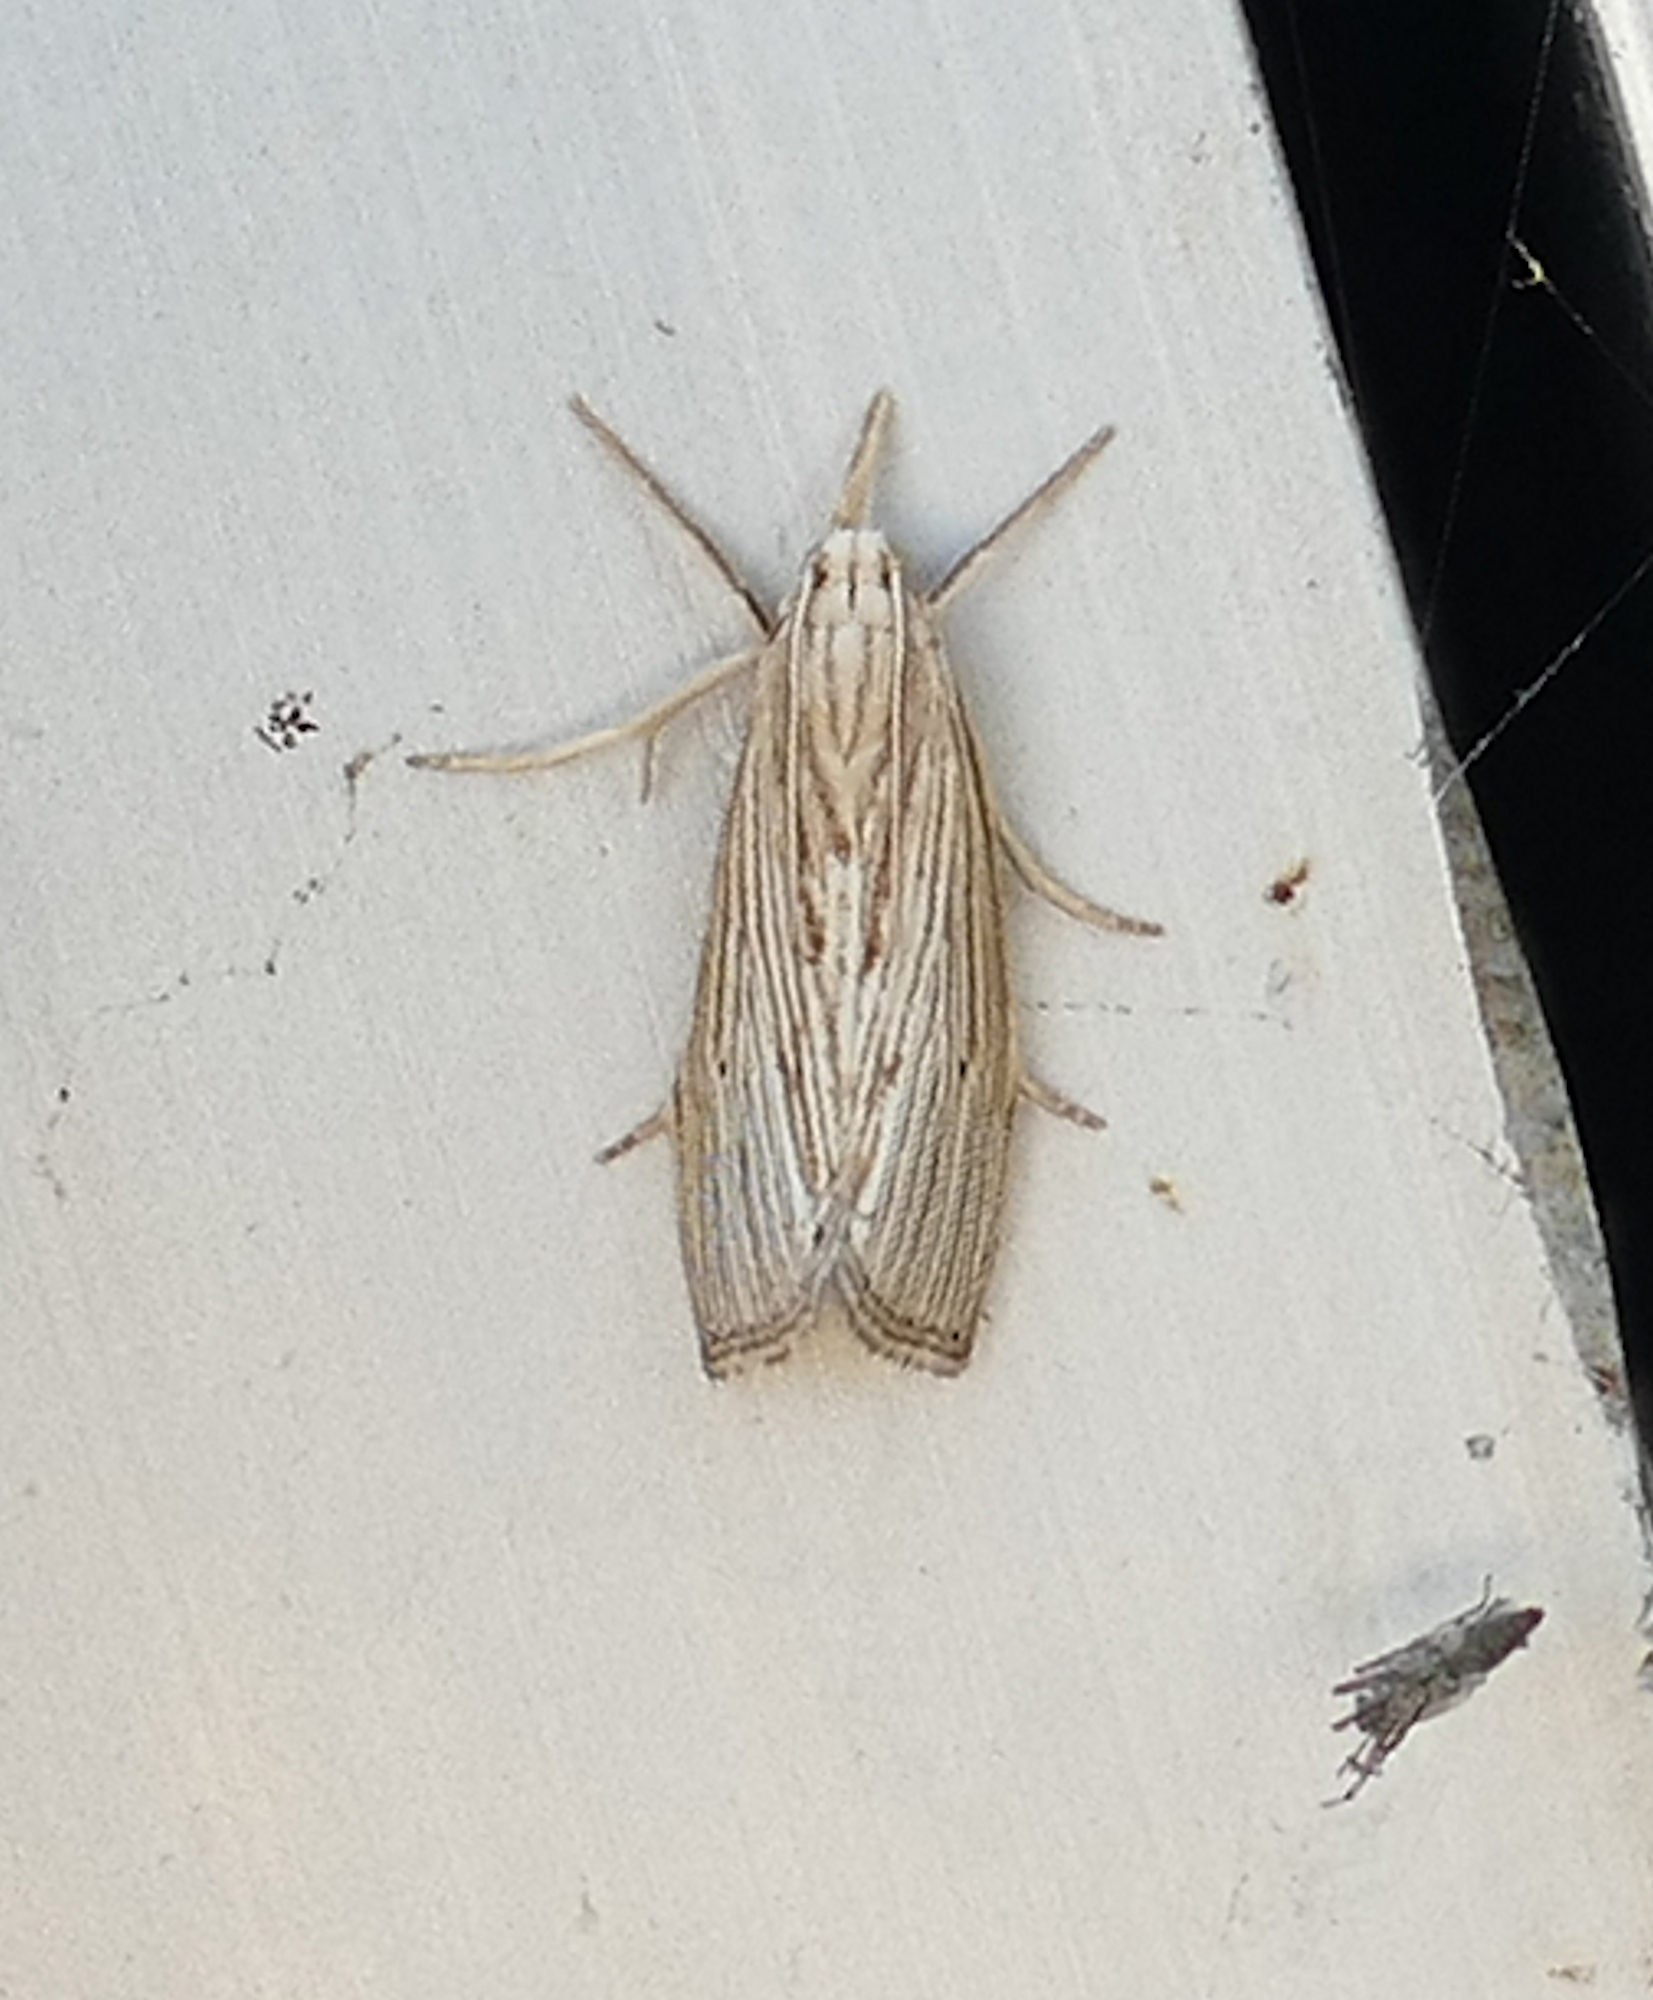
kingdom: Animalia
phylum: Arthropoda
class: Insecta
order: Lepidoptera
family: Crambidae
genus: Diatraea
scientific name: Diatraea evanescens
